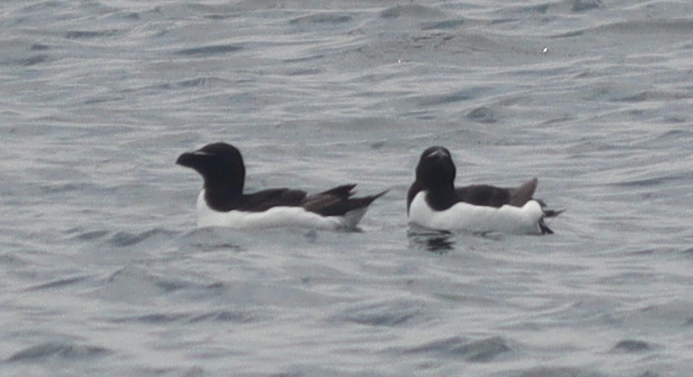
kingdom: Animalia
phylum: Chordata
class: Aves
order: Charadriiformes
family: Alcidae
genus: Alca
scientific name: Alca torda
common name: Razorbill
